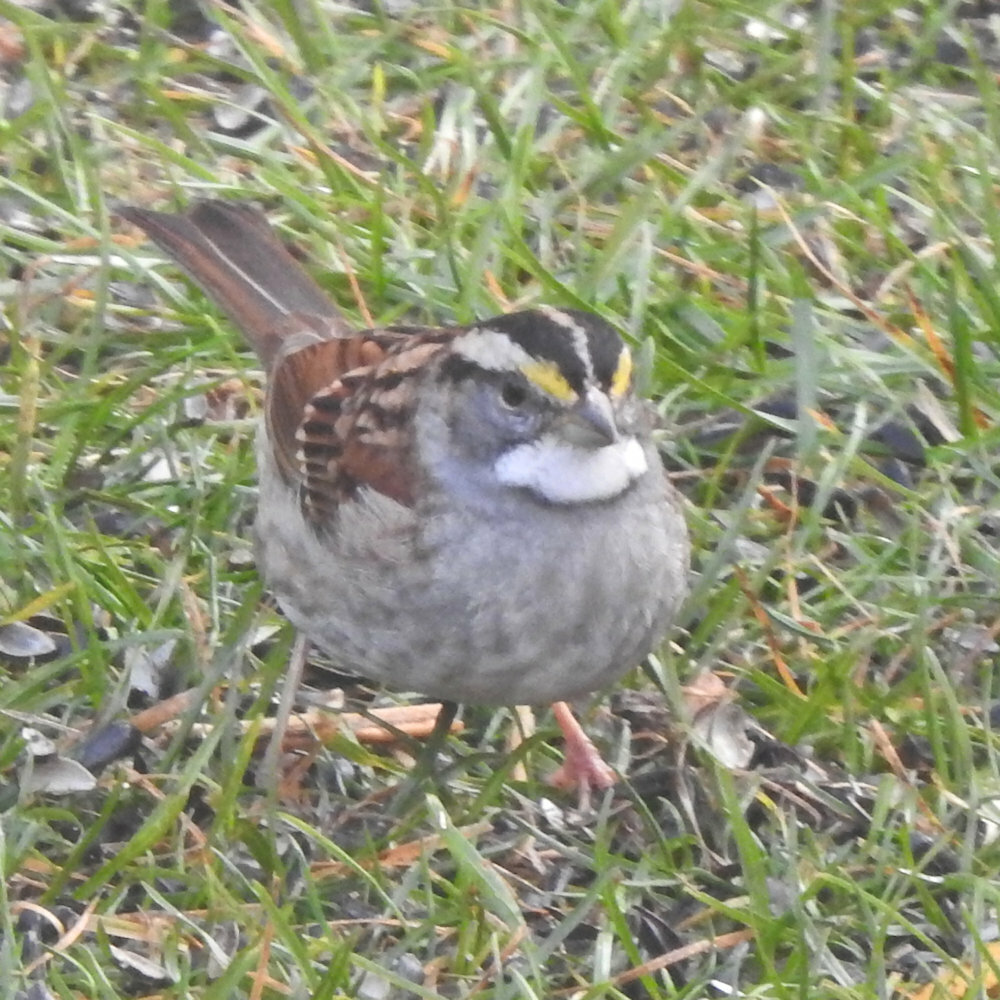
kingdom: Animalia
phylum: Chordata
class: Aves
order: Passeriformes
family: Passerellidae
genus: Zonotrichia
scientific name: Zonotrichia albicollis
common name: White-throated sparrow
